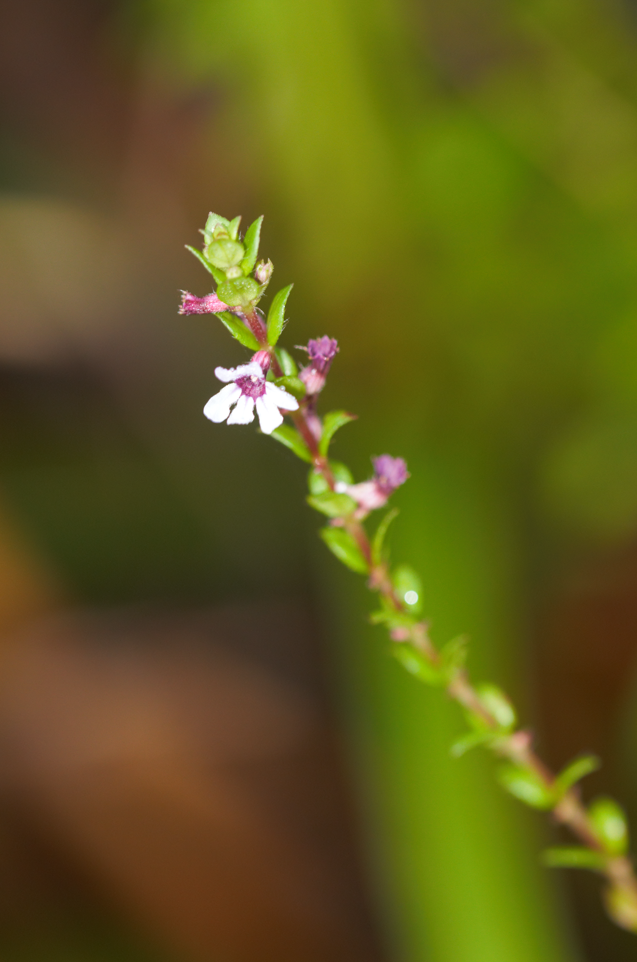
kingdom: Plantae
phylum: Tracheophyta
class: Magnoliopsida
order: Myrtales
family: Lythraceae
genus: Cuphea
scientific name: Cuphea blackii
